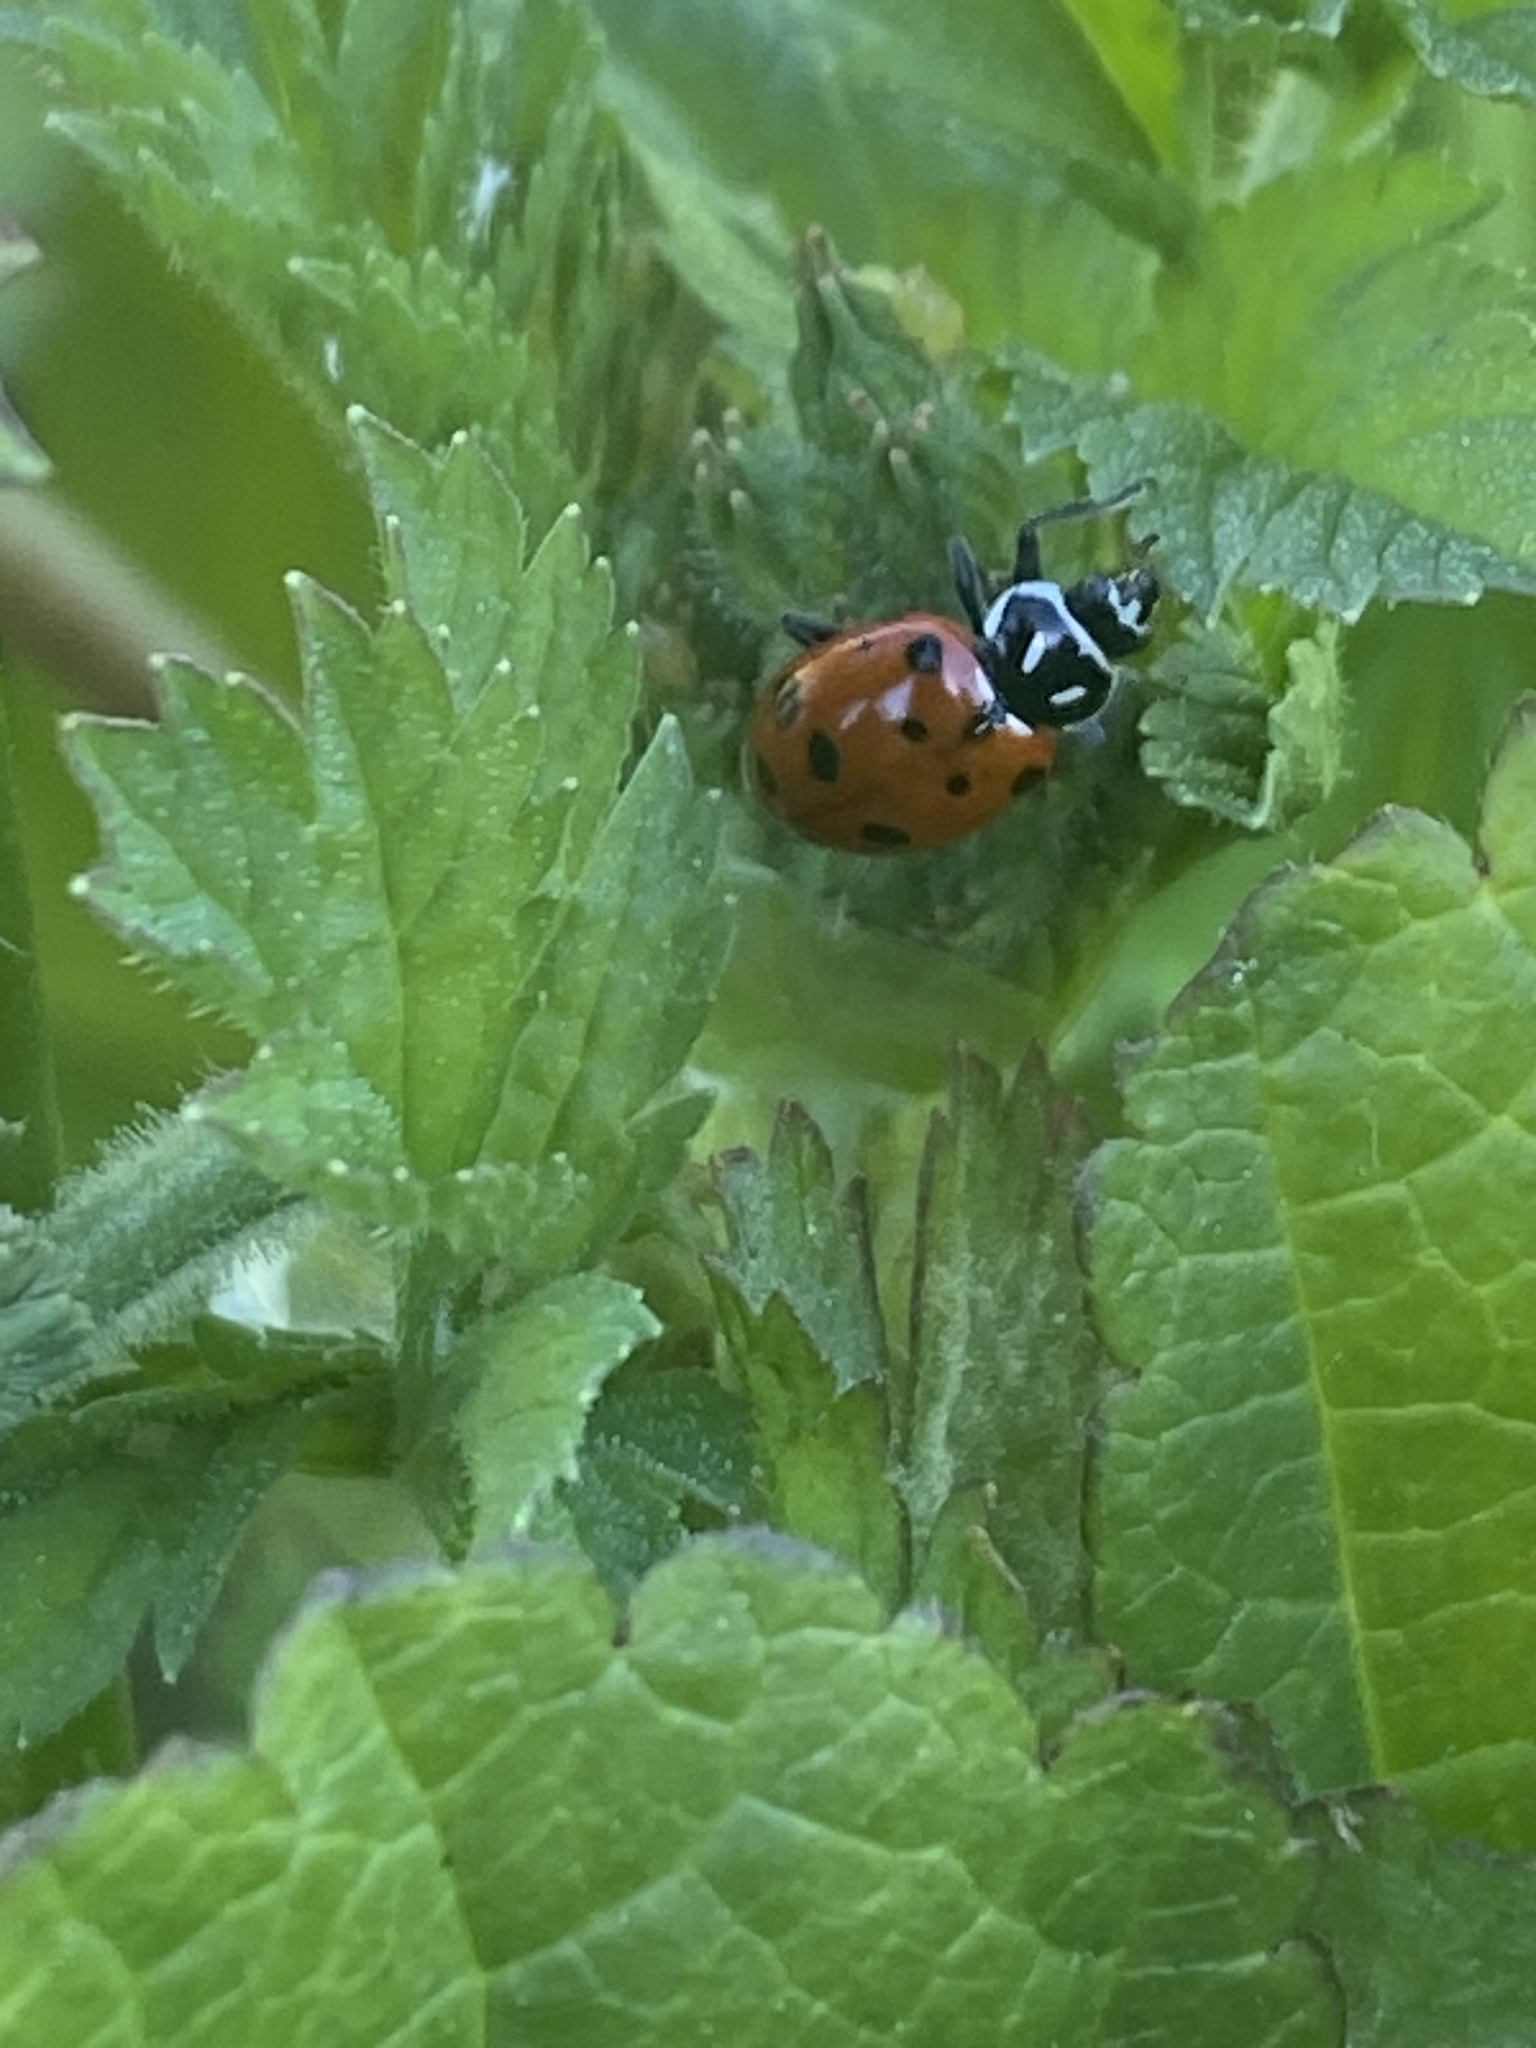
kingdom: Animalia
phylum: Arthropoda
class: Insecta
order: Coleoptera
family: Coccinellidae
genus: Hippodamia
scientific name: Hippodamia convergens
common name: Convergent lady beetle
